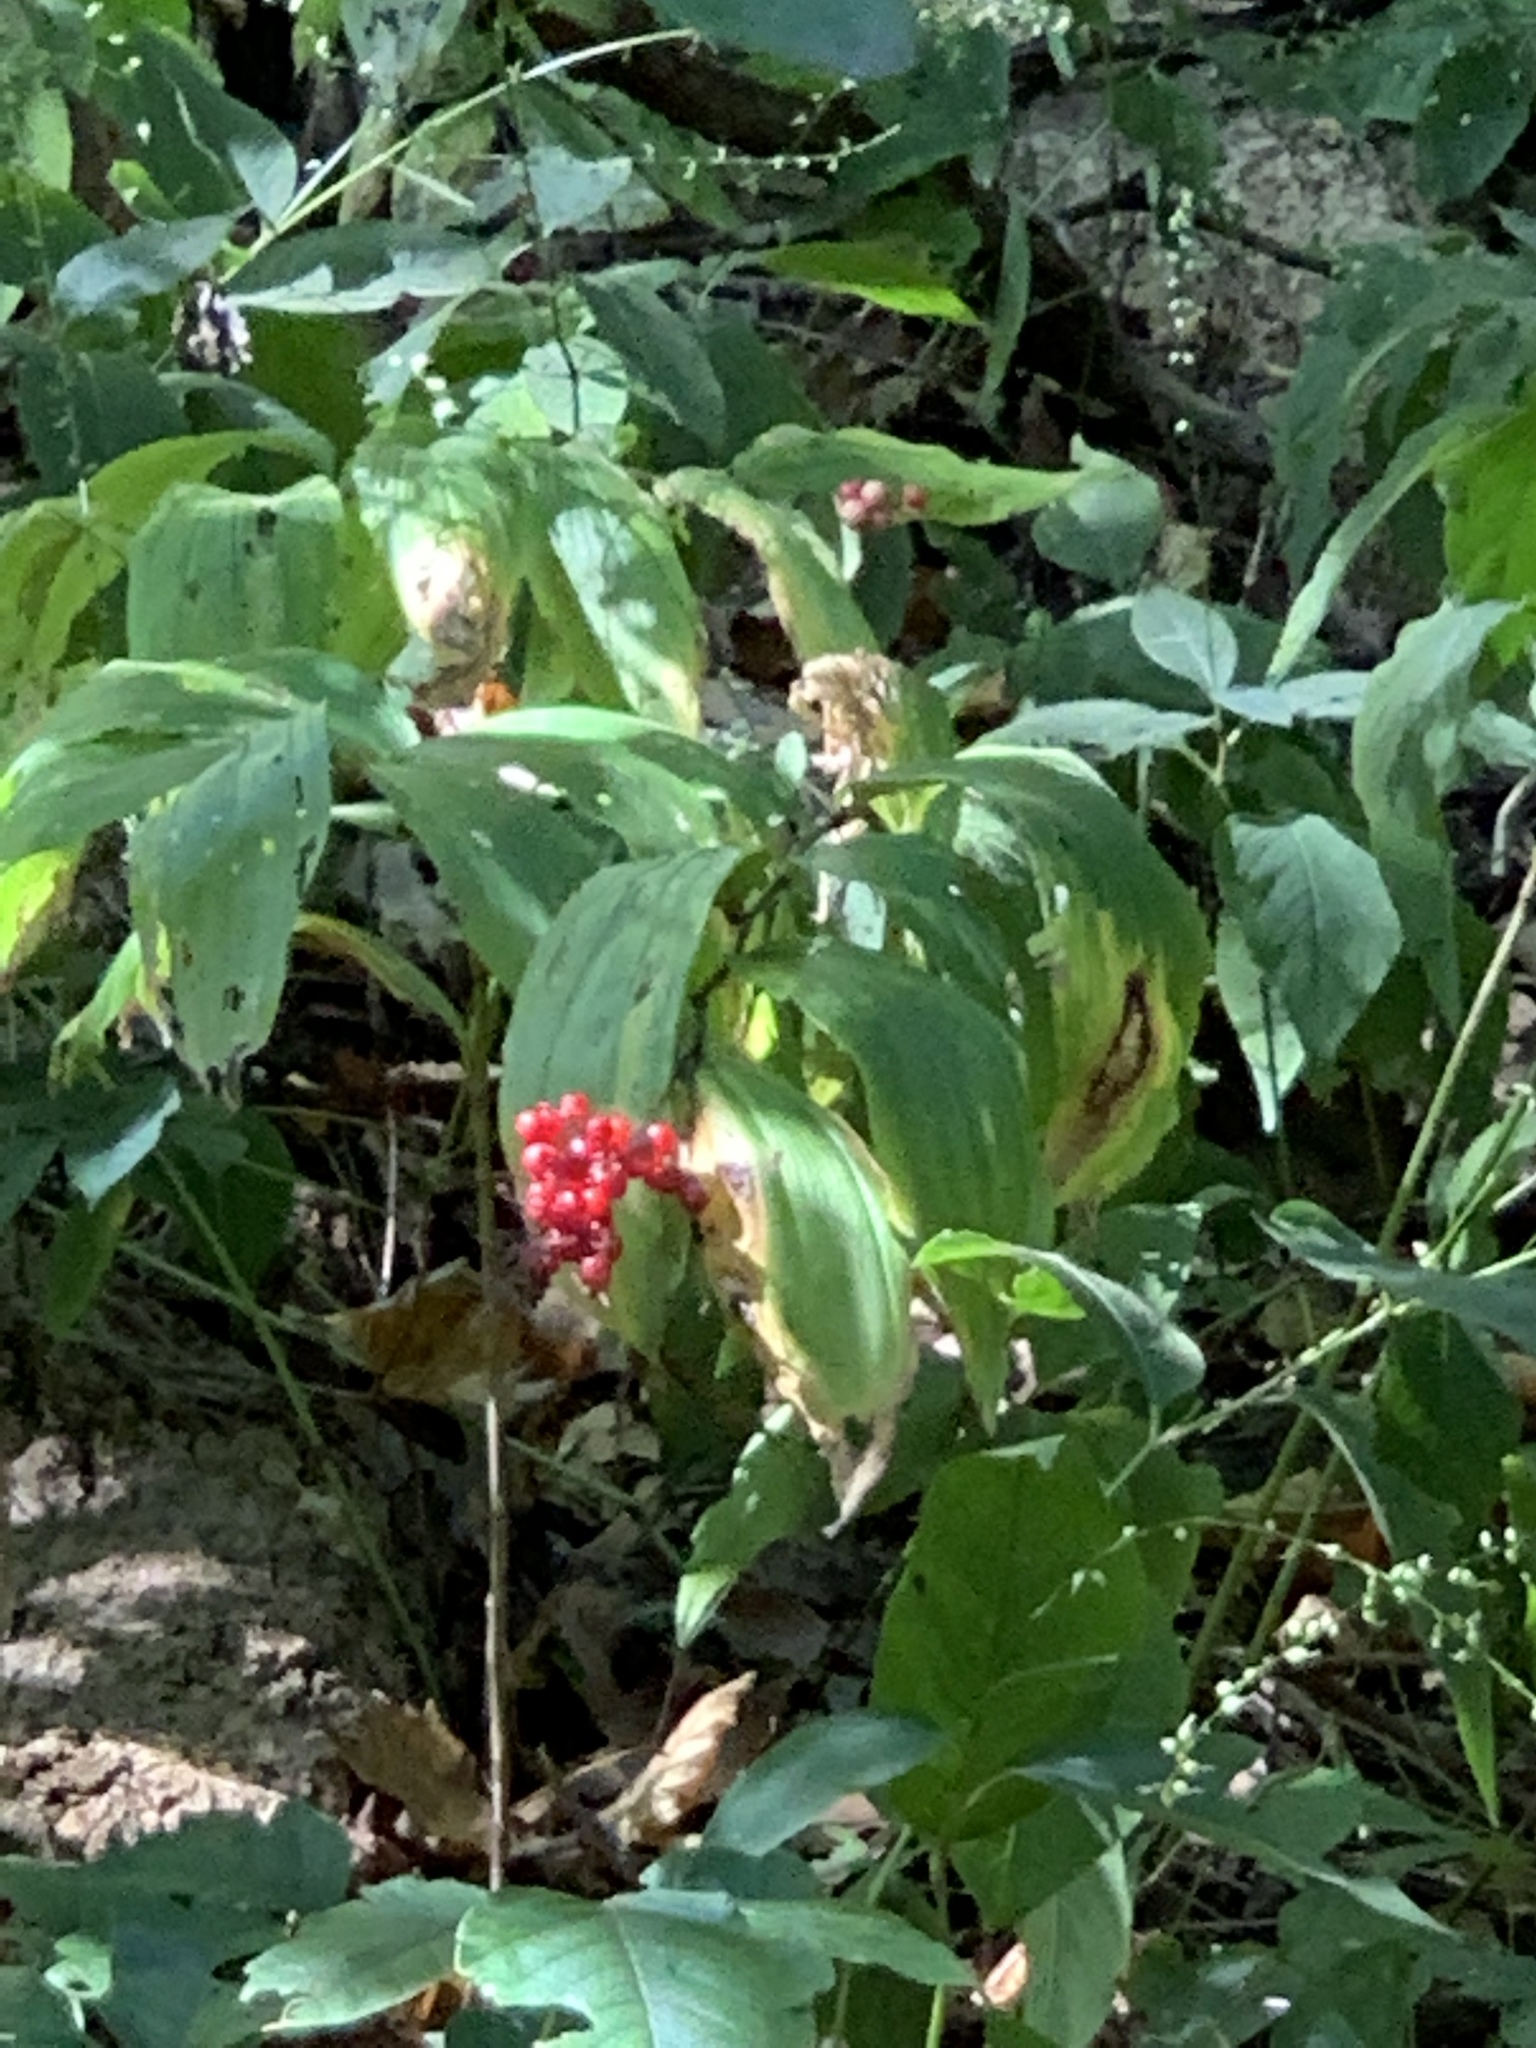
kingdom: Plantae
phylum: Tracheophyta
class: Liliopsida
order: Asparagales
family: Asparagaceae
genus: Maianthemum
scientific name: Maianthemum racemosum
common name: False spikenard
